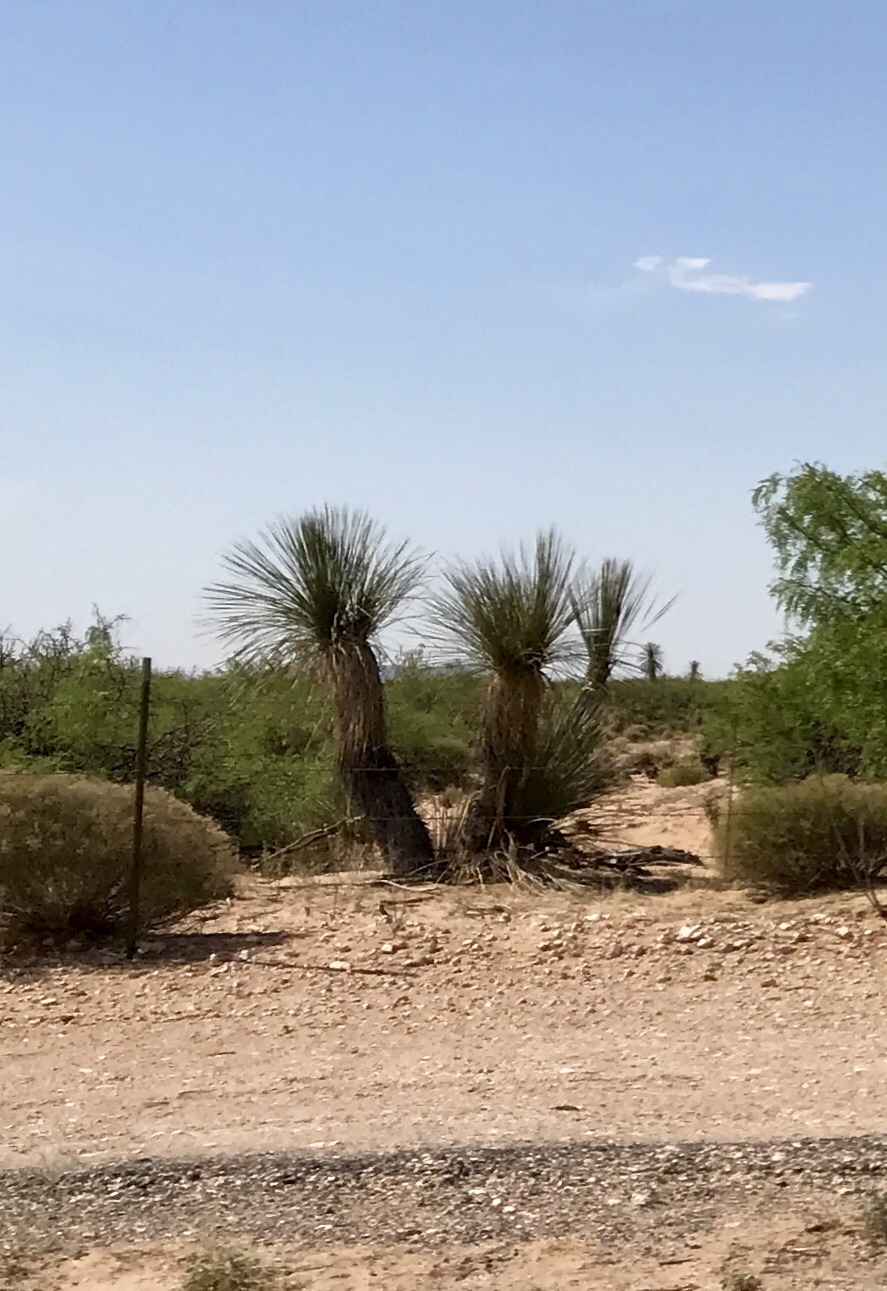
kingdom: Plantae
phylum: Tracheophyta
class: Liliopsida
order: Asparagales
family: Asparagaceae
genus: Yucca
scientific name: Yucca elata
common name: Palmella
